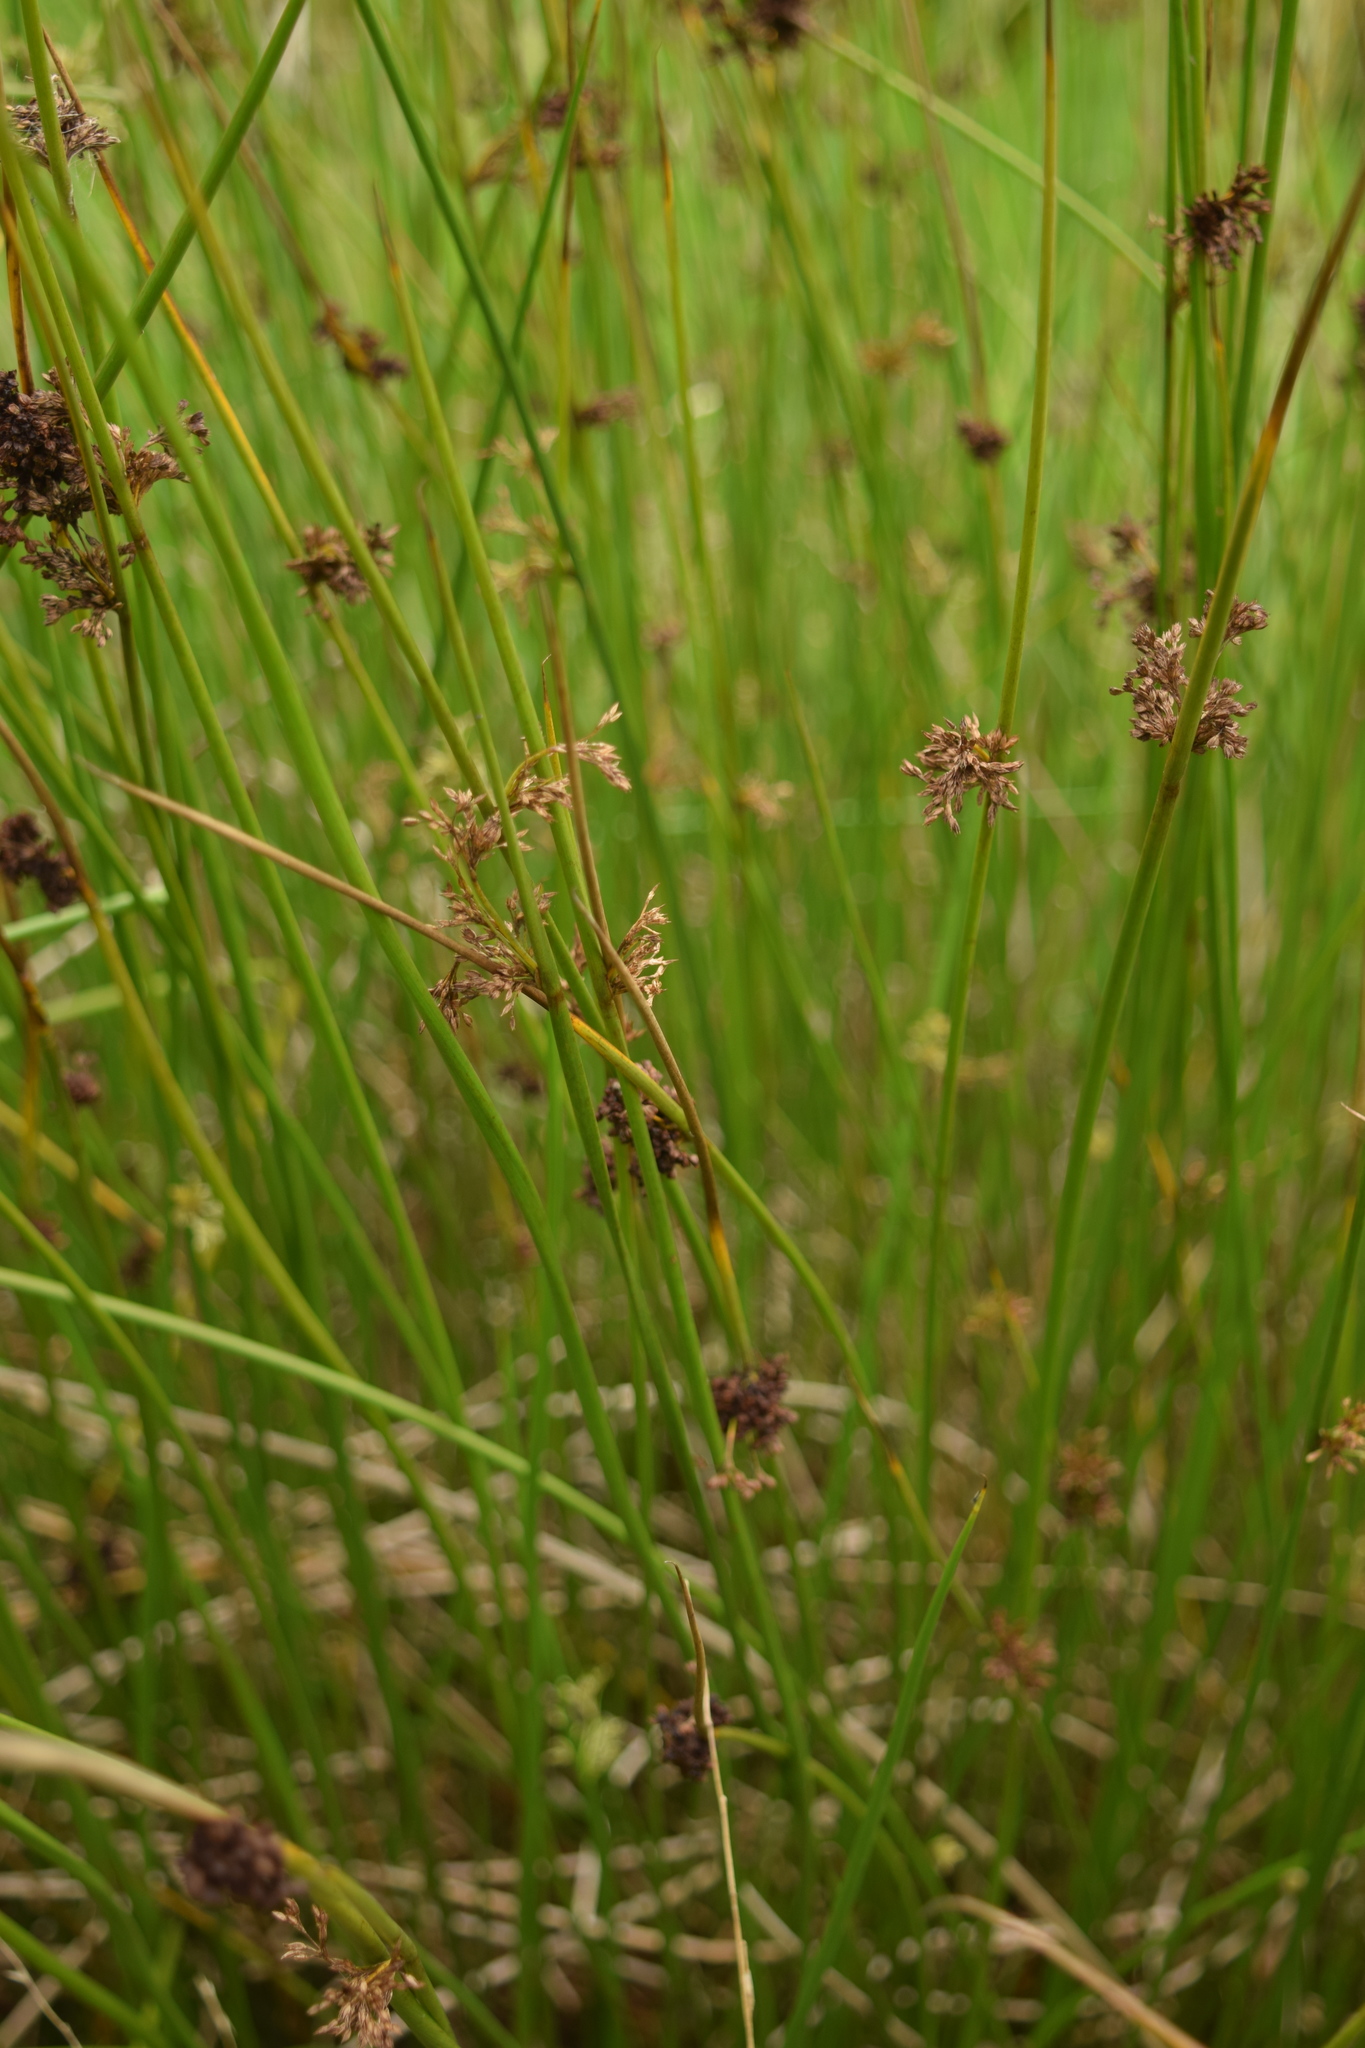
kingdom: Plantae
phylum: Tracheophyta
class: Liliopsida
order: Poales
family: Juncaceae
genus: Juncus
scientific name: Juncus effusus
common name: Soft rush
